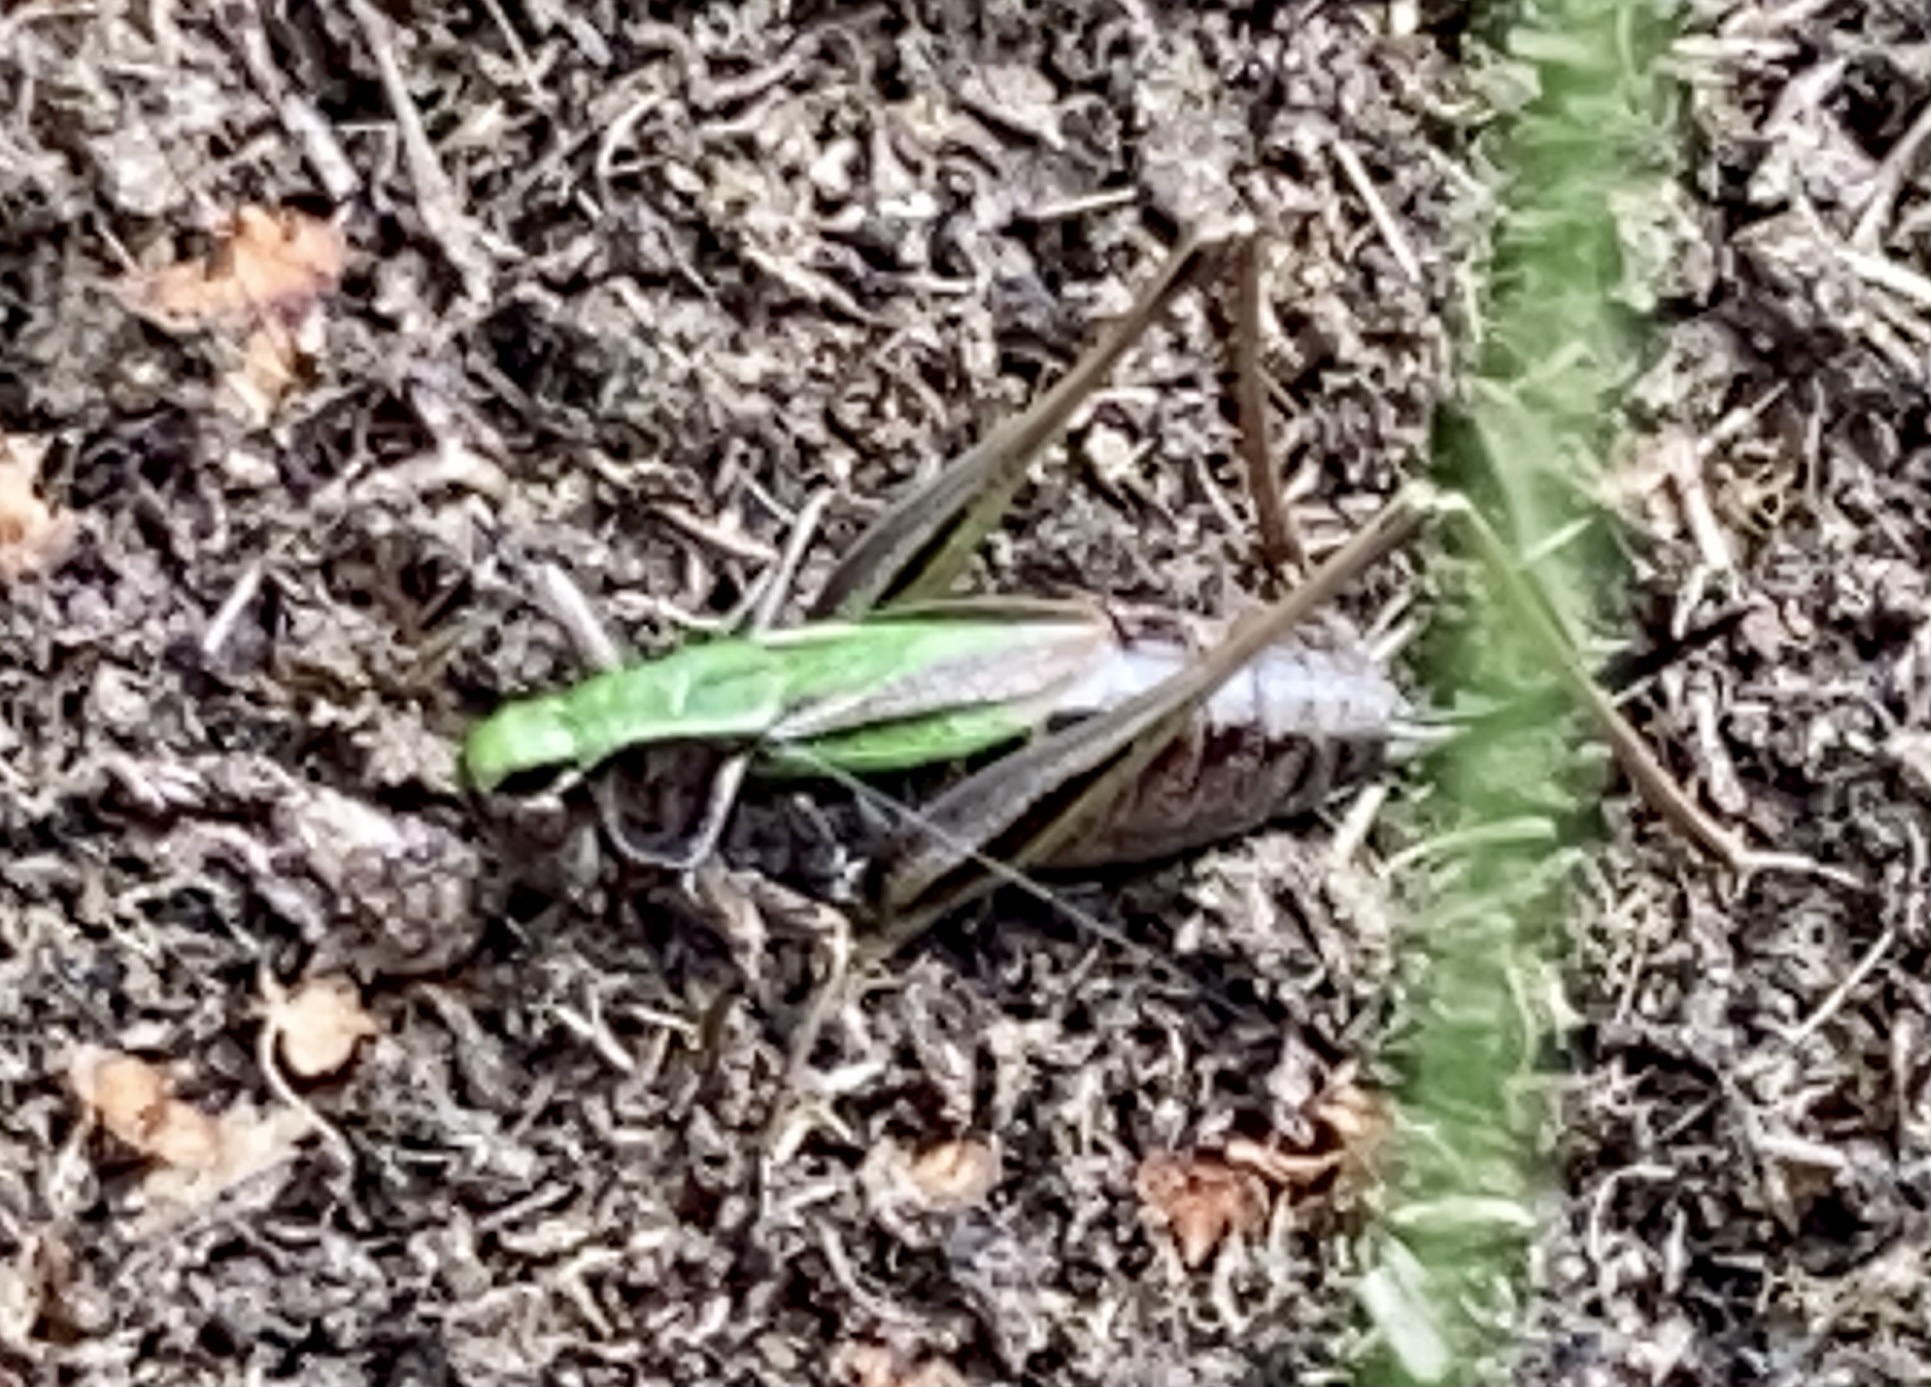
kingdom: Animalia
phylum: Arthropoda
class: Insecta
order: Orthoptera
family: Tettigoniidae
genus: Metrioptera
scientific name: Metrioptera brachyptera
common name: Bog bush-cricket
